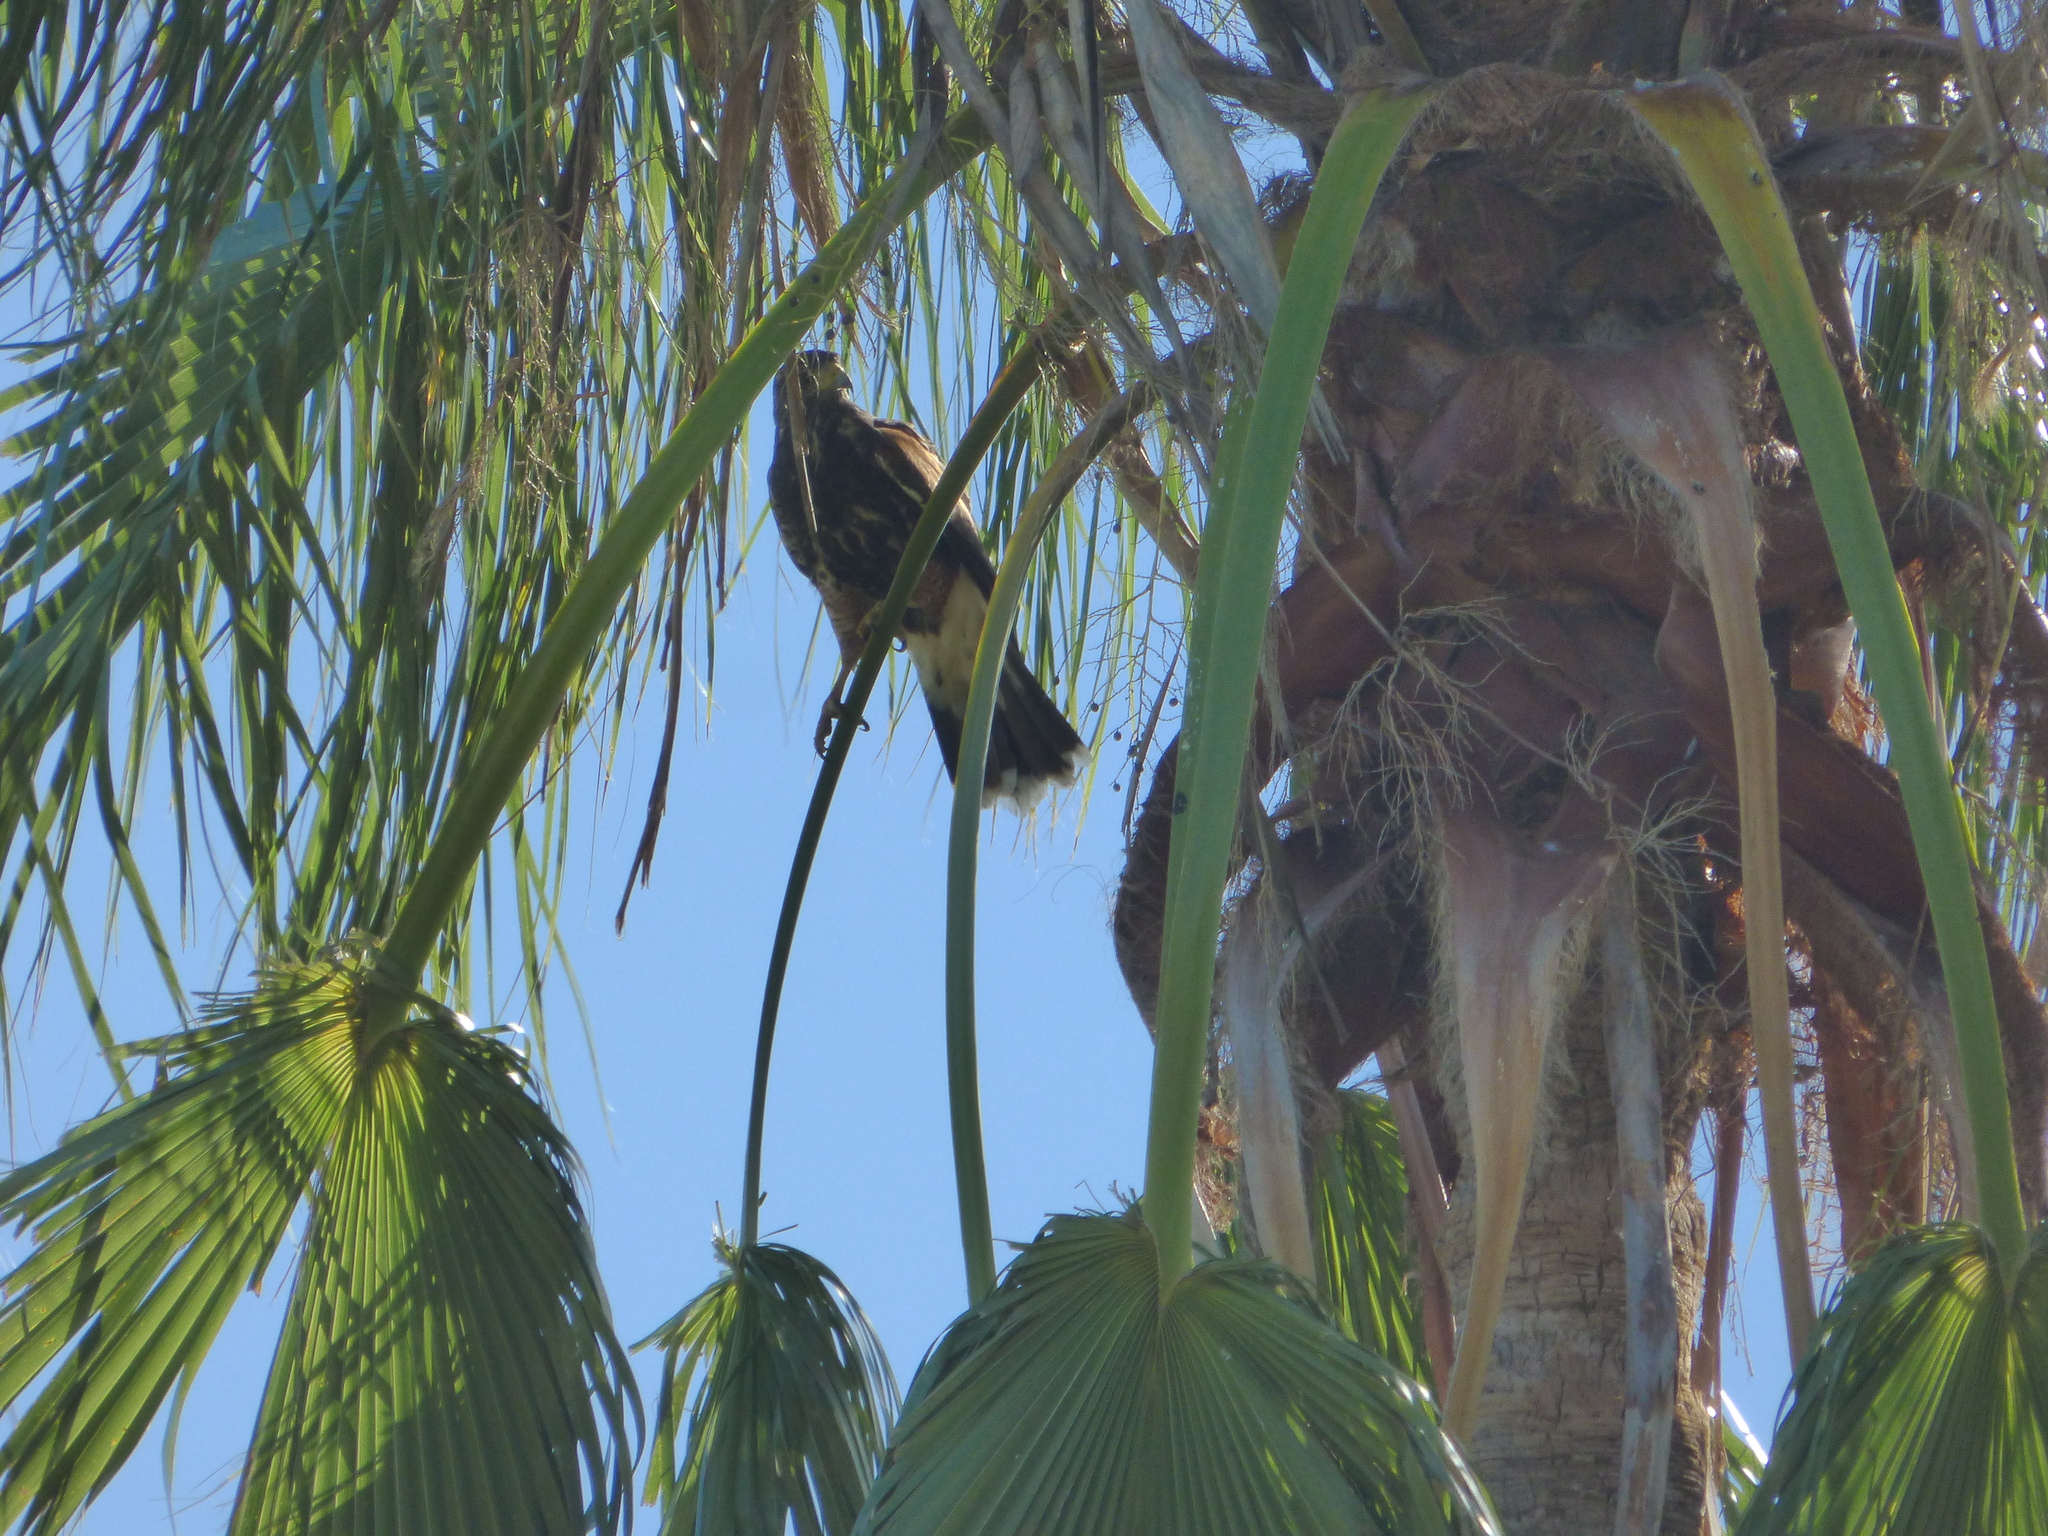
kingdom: Animalia
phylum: Chordata
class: Aves
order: Accipitriformes
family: Accipitridae
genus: Parabuteo
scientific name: Parabuteo unicinctus
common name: Harris's hawk
